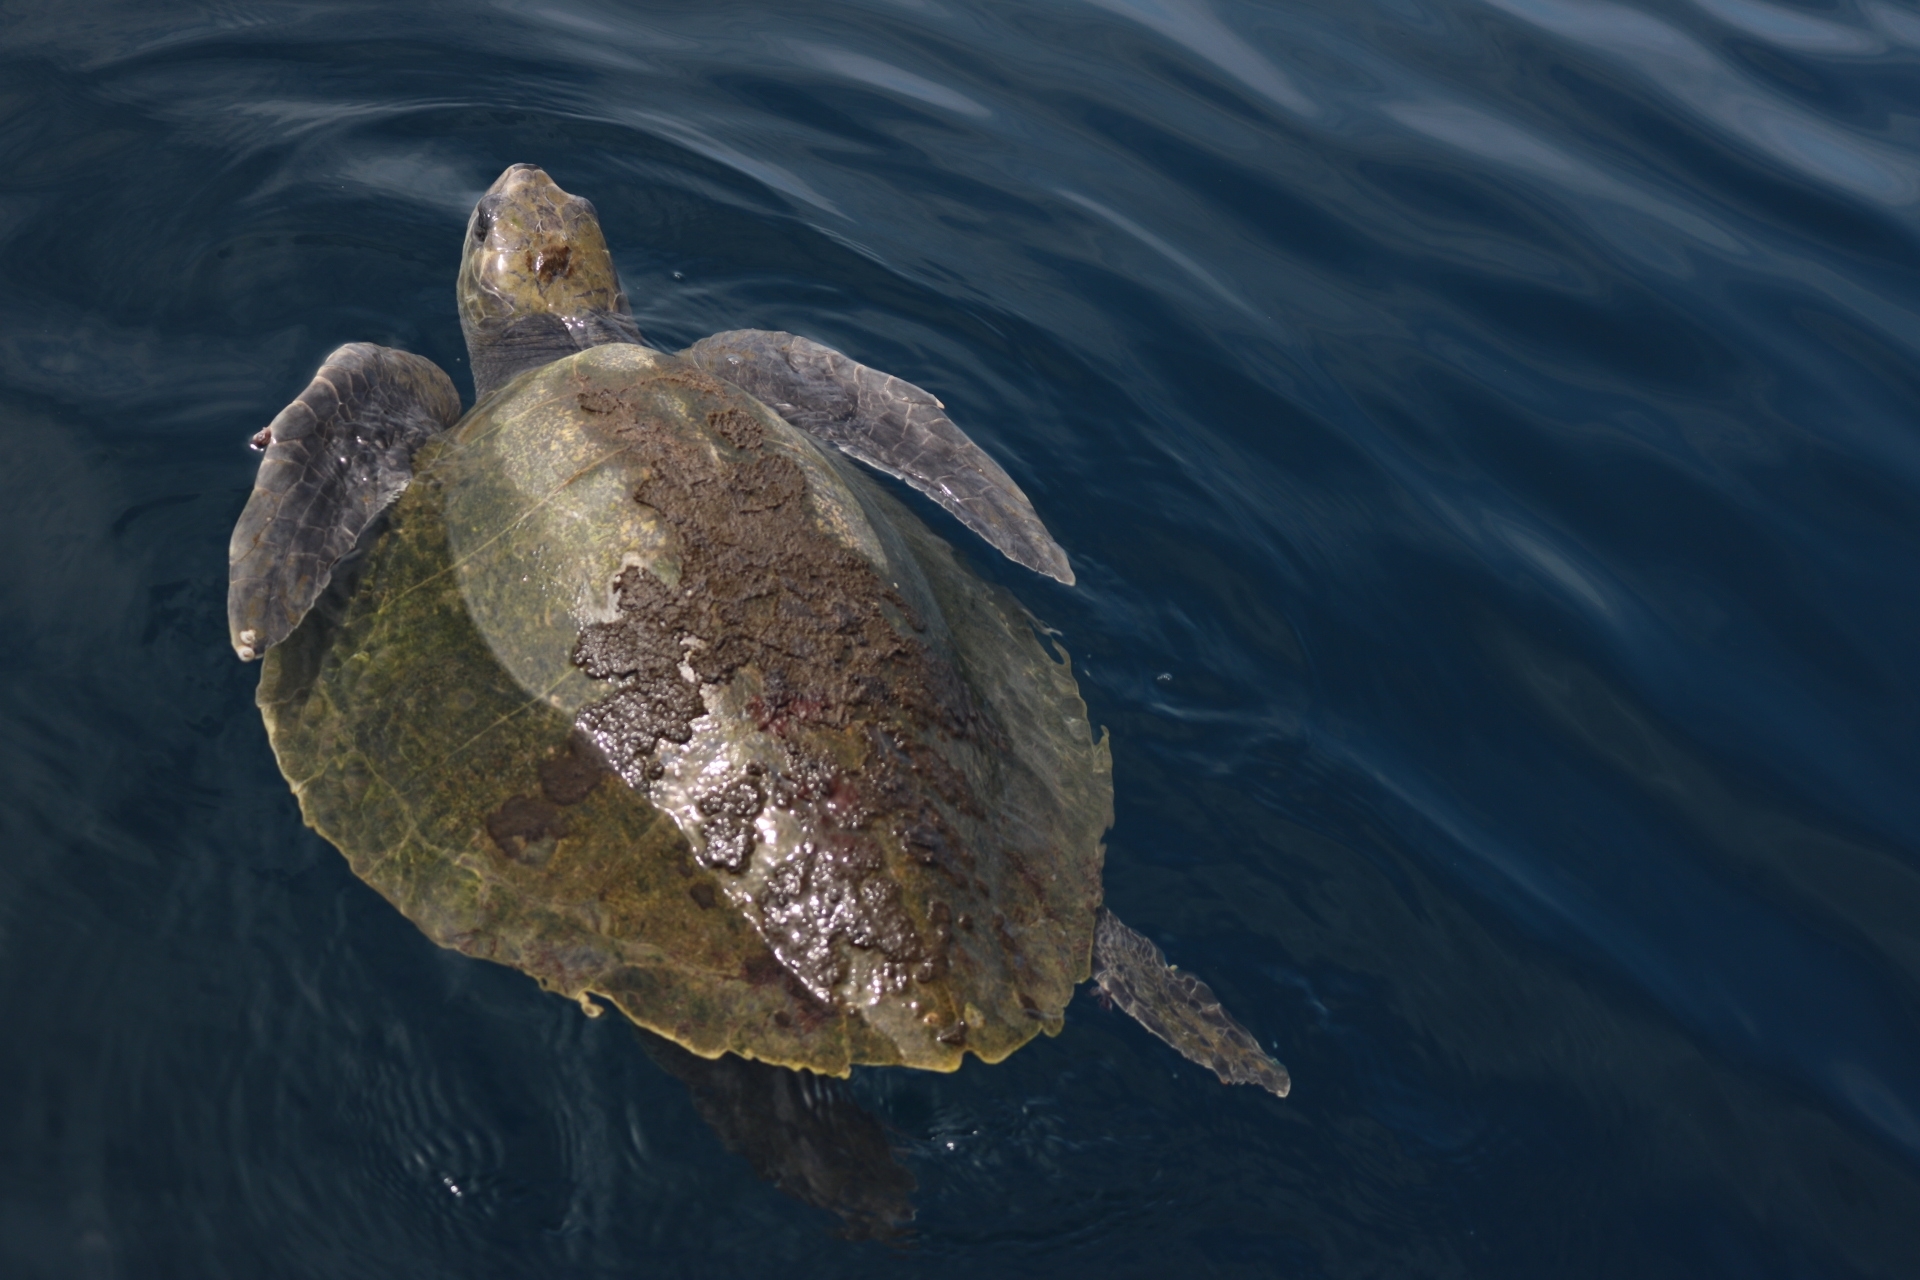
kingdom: Animalia
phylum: Chordata
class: Testudines
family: Cheloniidae
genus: Lepidochelys
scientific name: Lepidochelys olivacea
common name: Olive ridley
